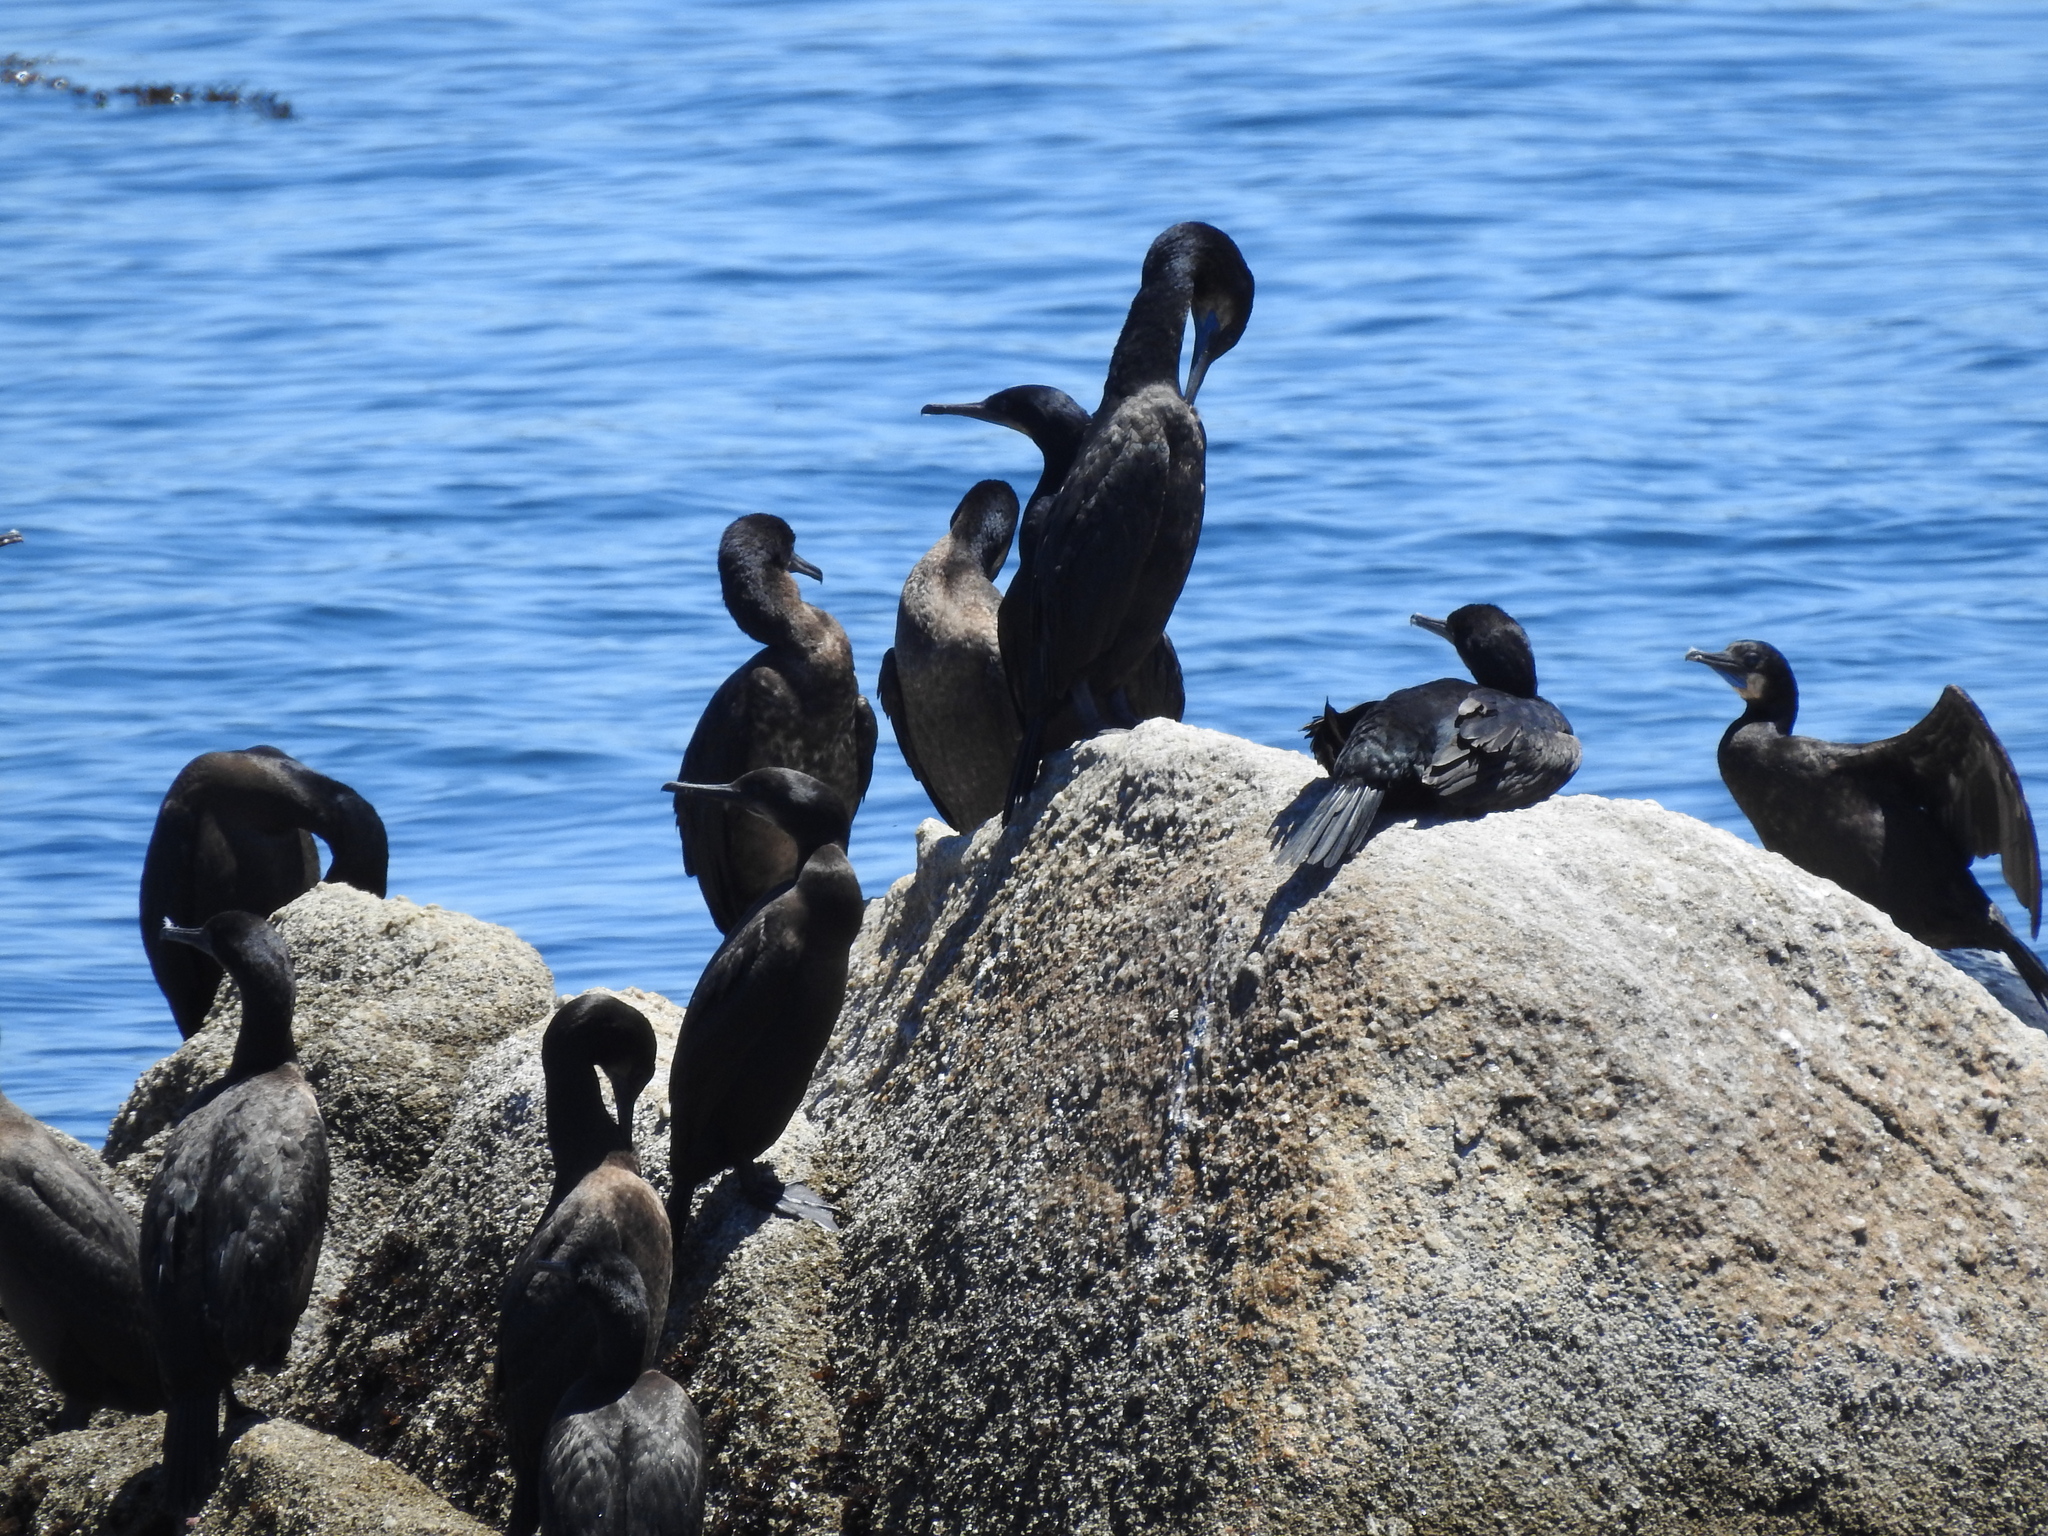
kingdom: Animalia
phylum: Chordata
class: Aves
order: Suliformes
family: Phalacrocoracidae
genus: Urile
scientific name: Urile penicillatus
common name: Brandt's cormorant
